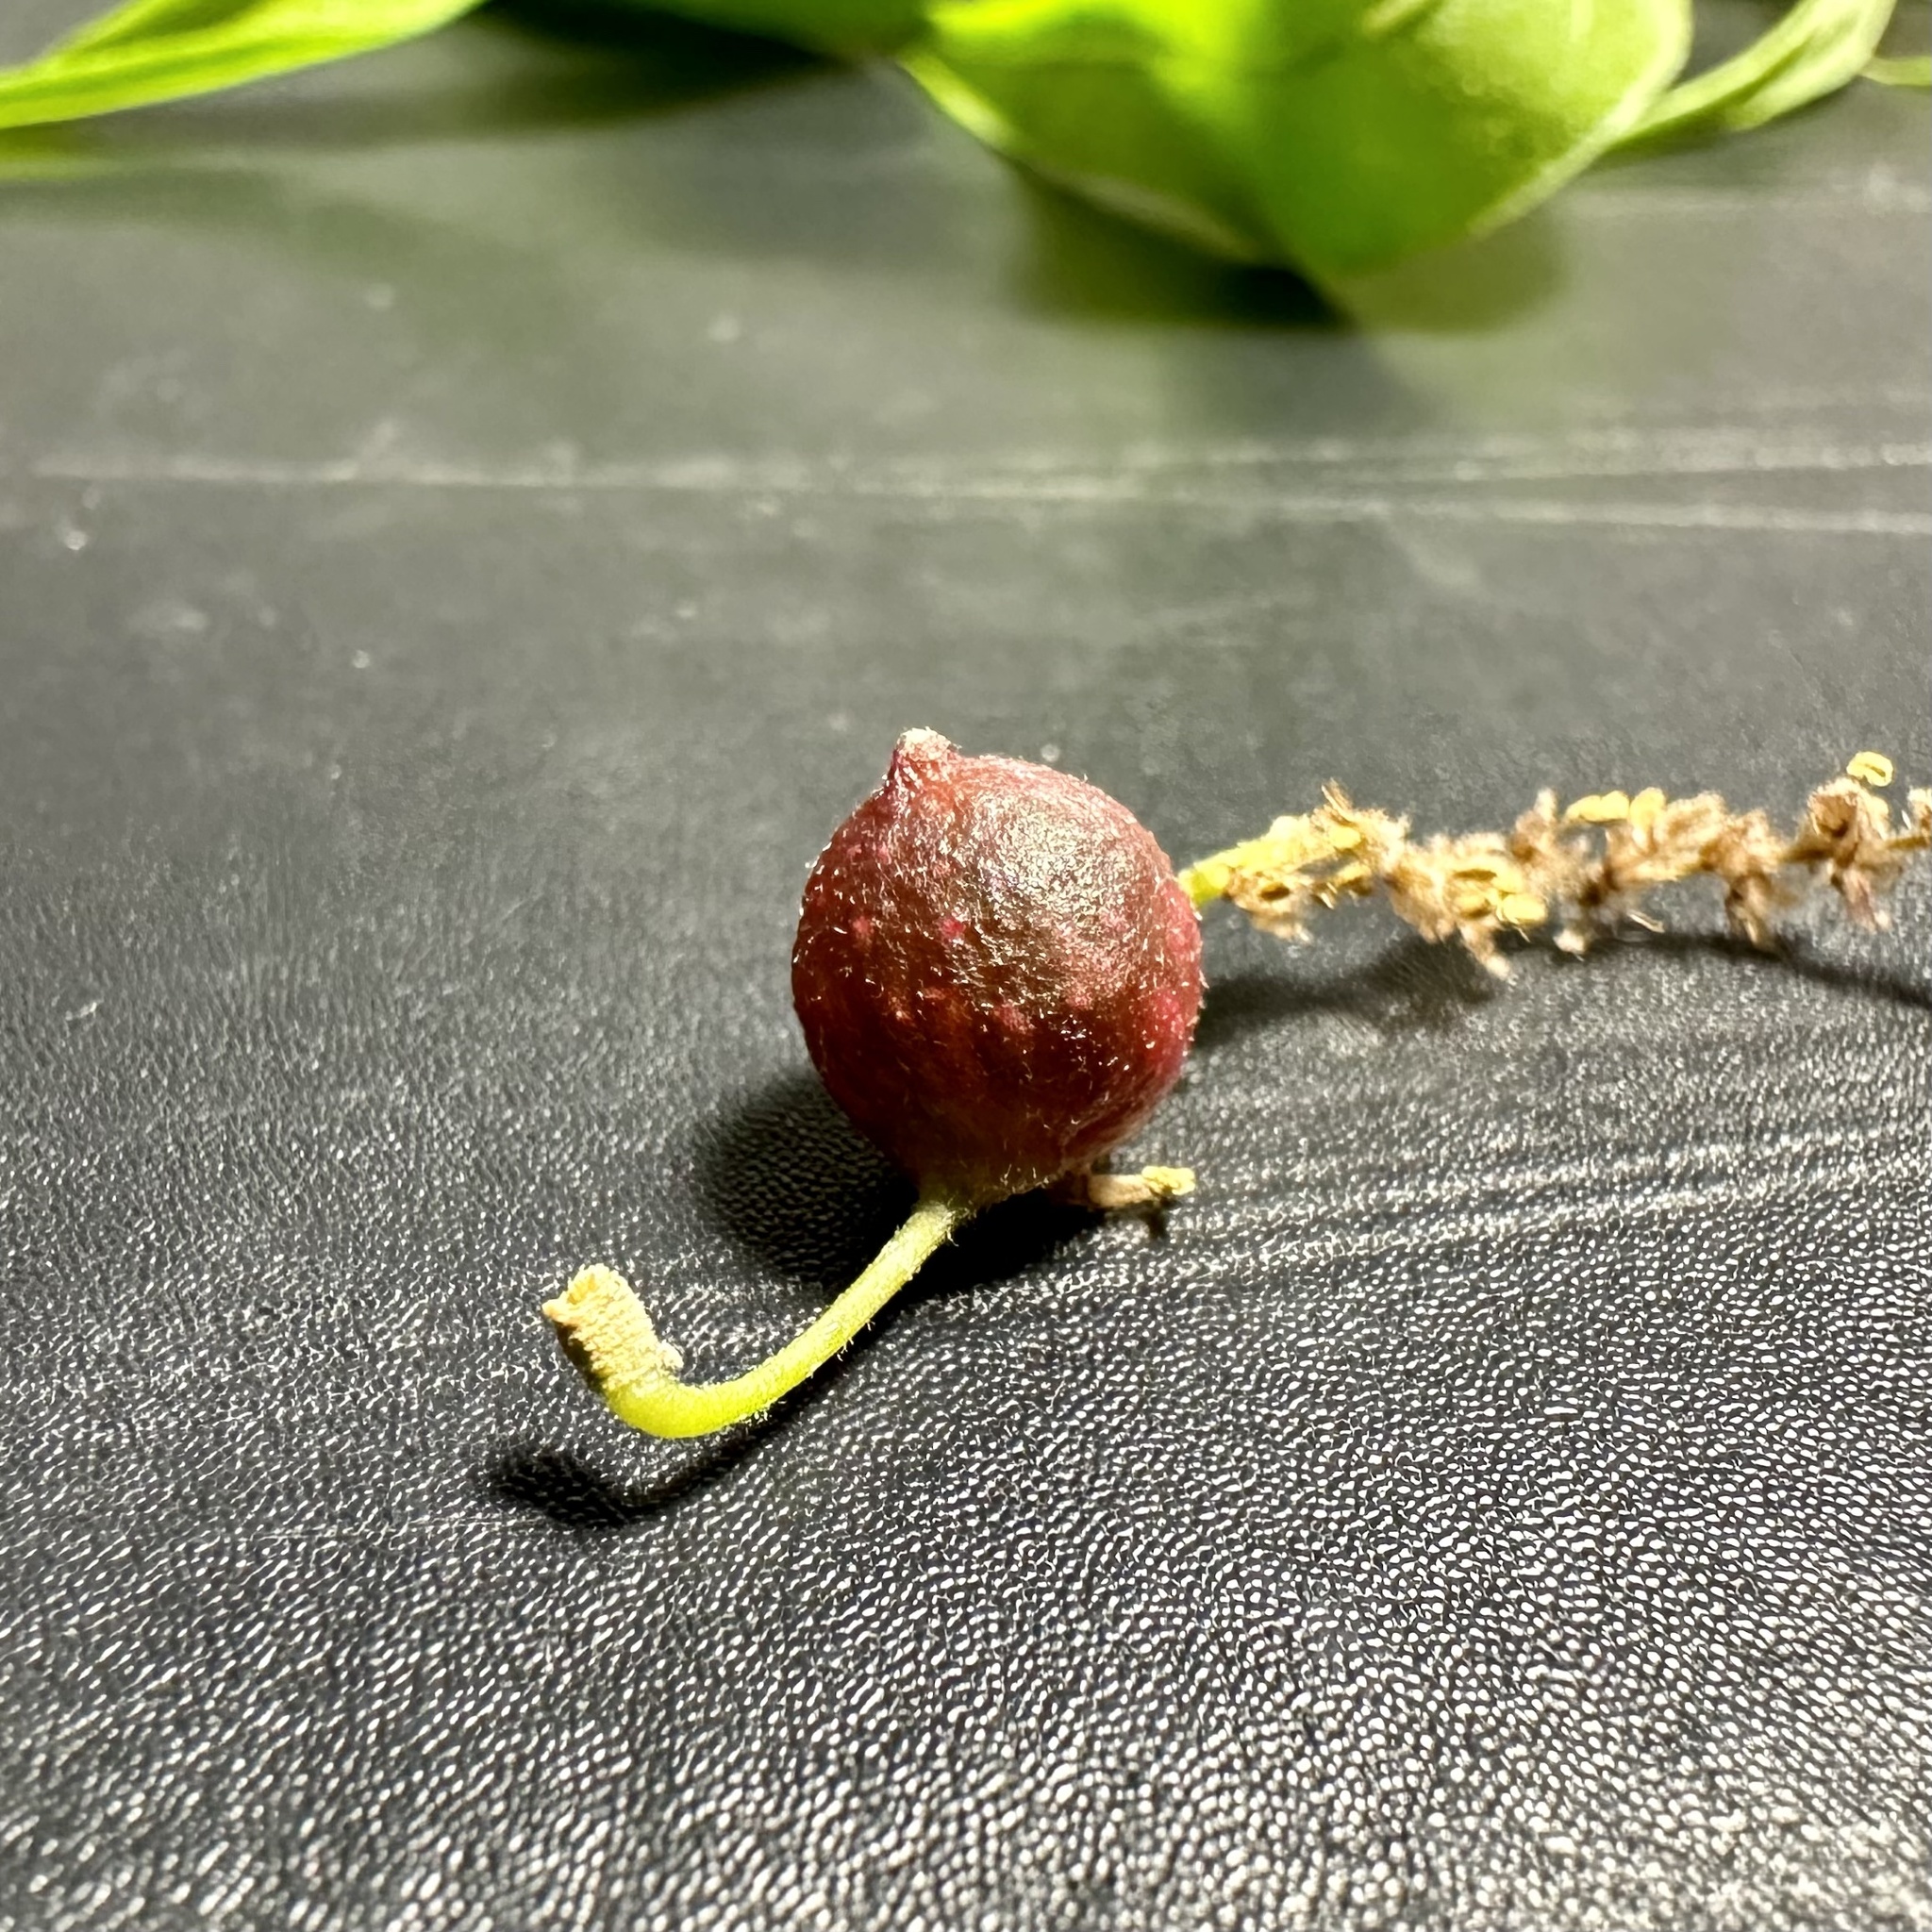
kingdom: Animalia
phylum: Arthropoda
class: Insecta
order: Hymenoptera
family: Cynipidae
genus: Dryocosmus
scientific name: Dryocosmus
